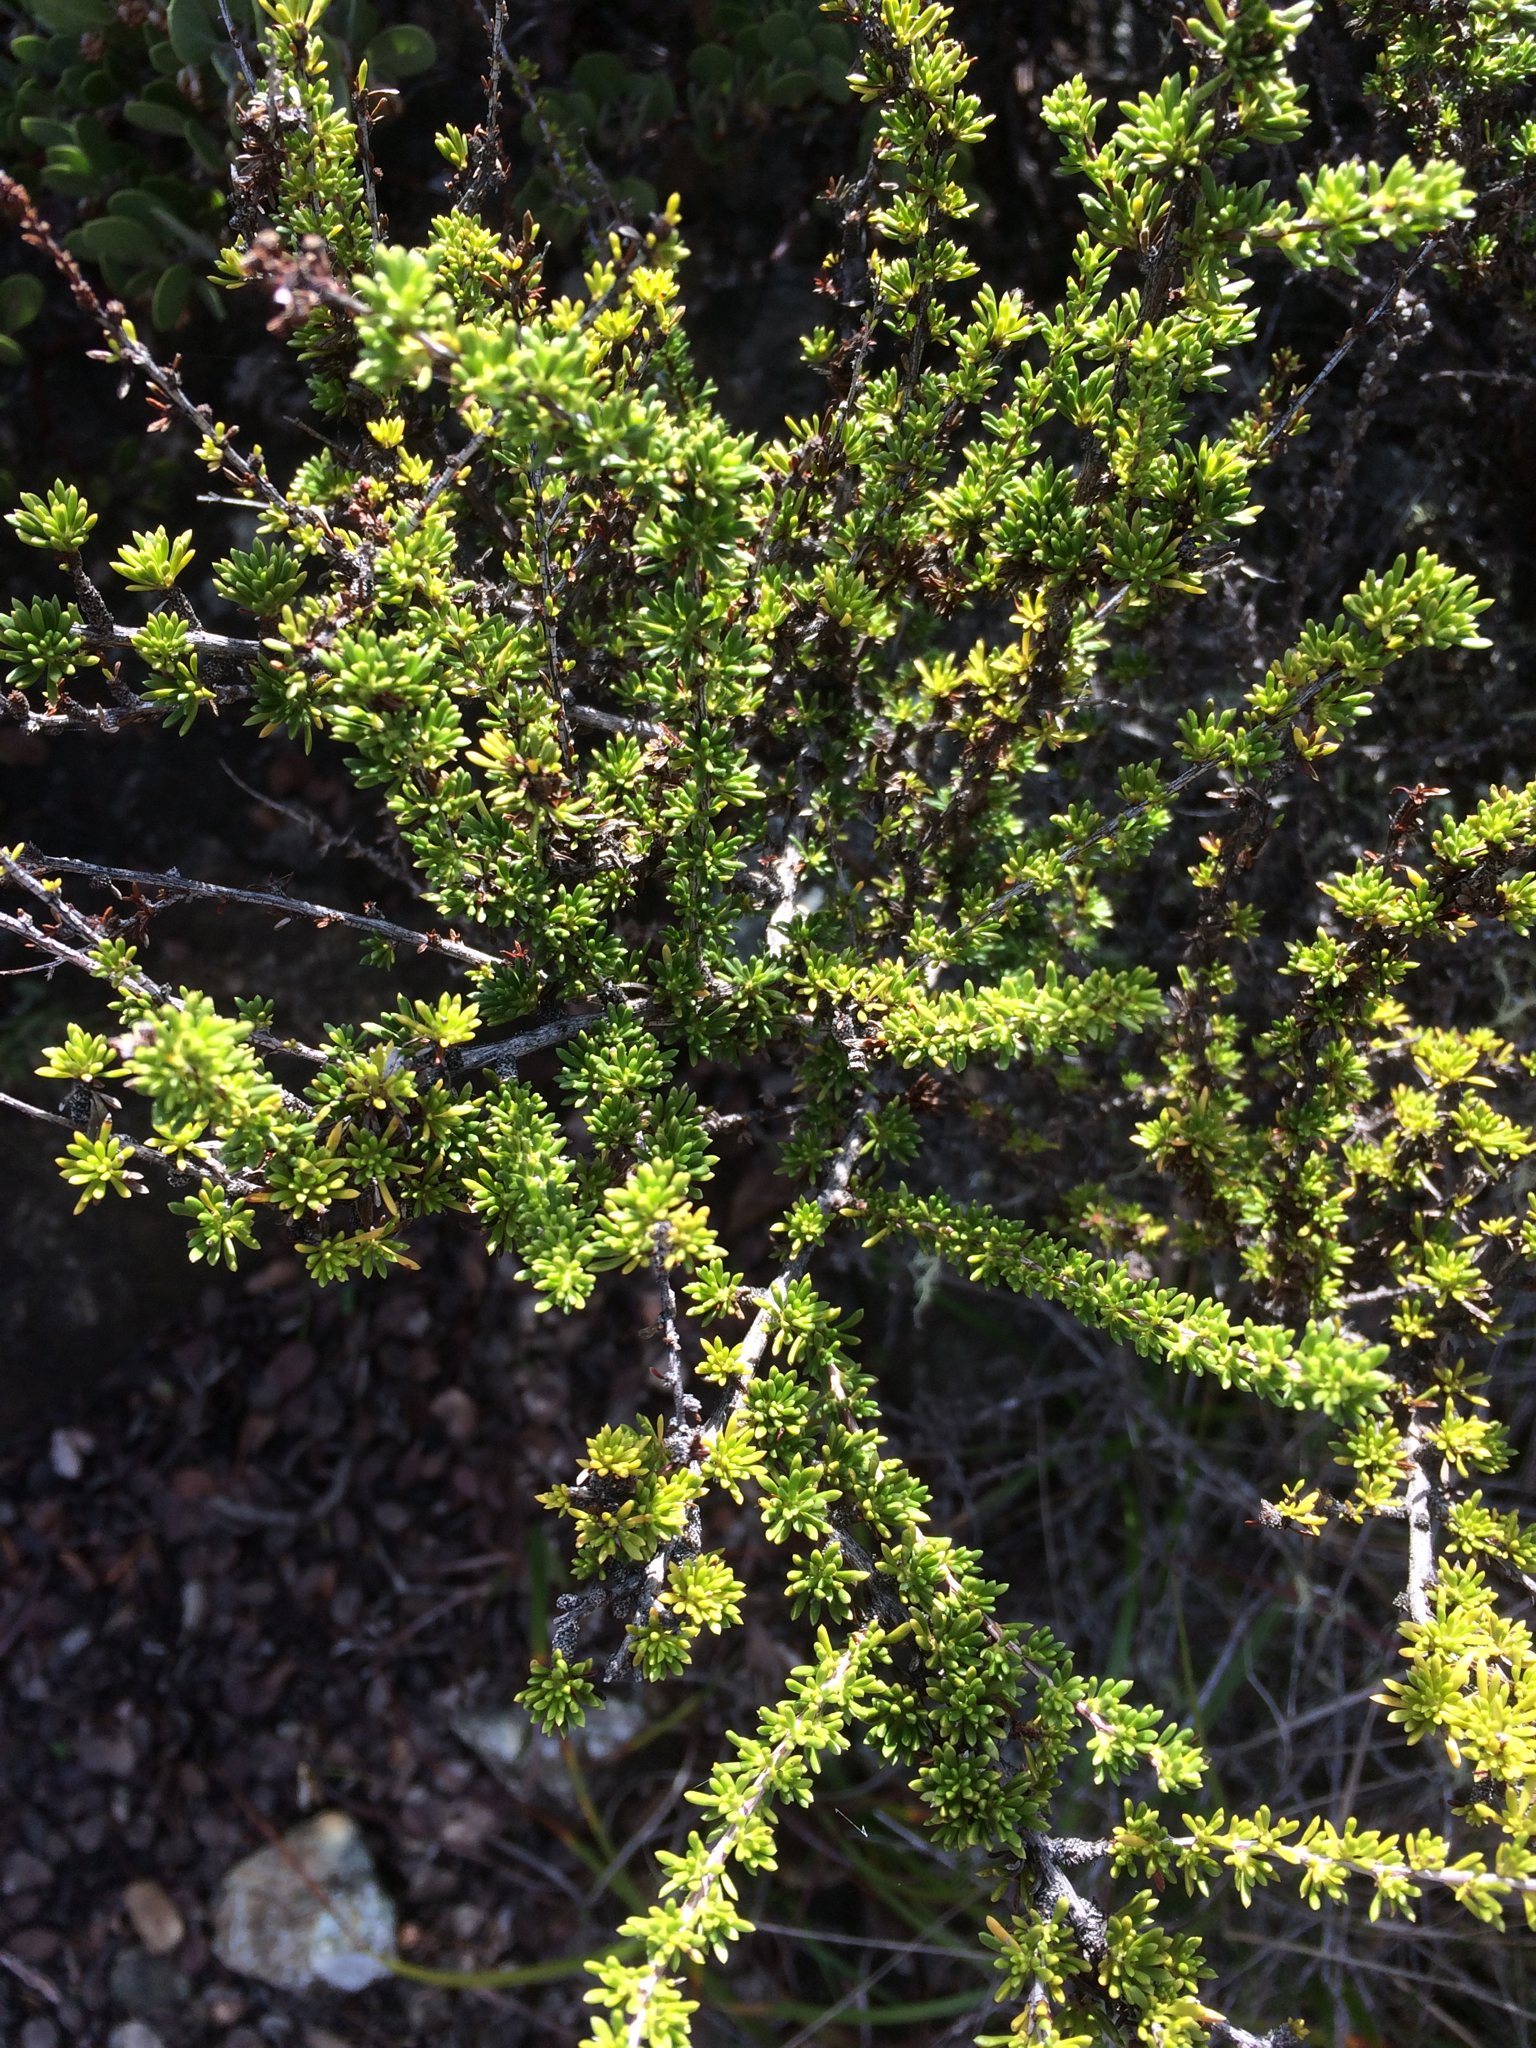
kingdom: Plantae
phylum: Tracheophyta
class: Magnoliopsida
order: Rosales
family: Rosaceae
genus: Adenostoma
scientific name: Adenostoma fasciculatum
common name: Chamise
